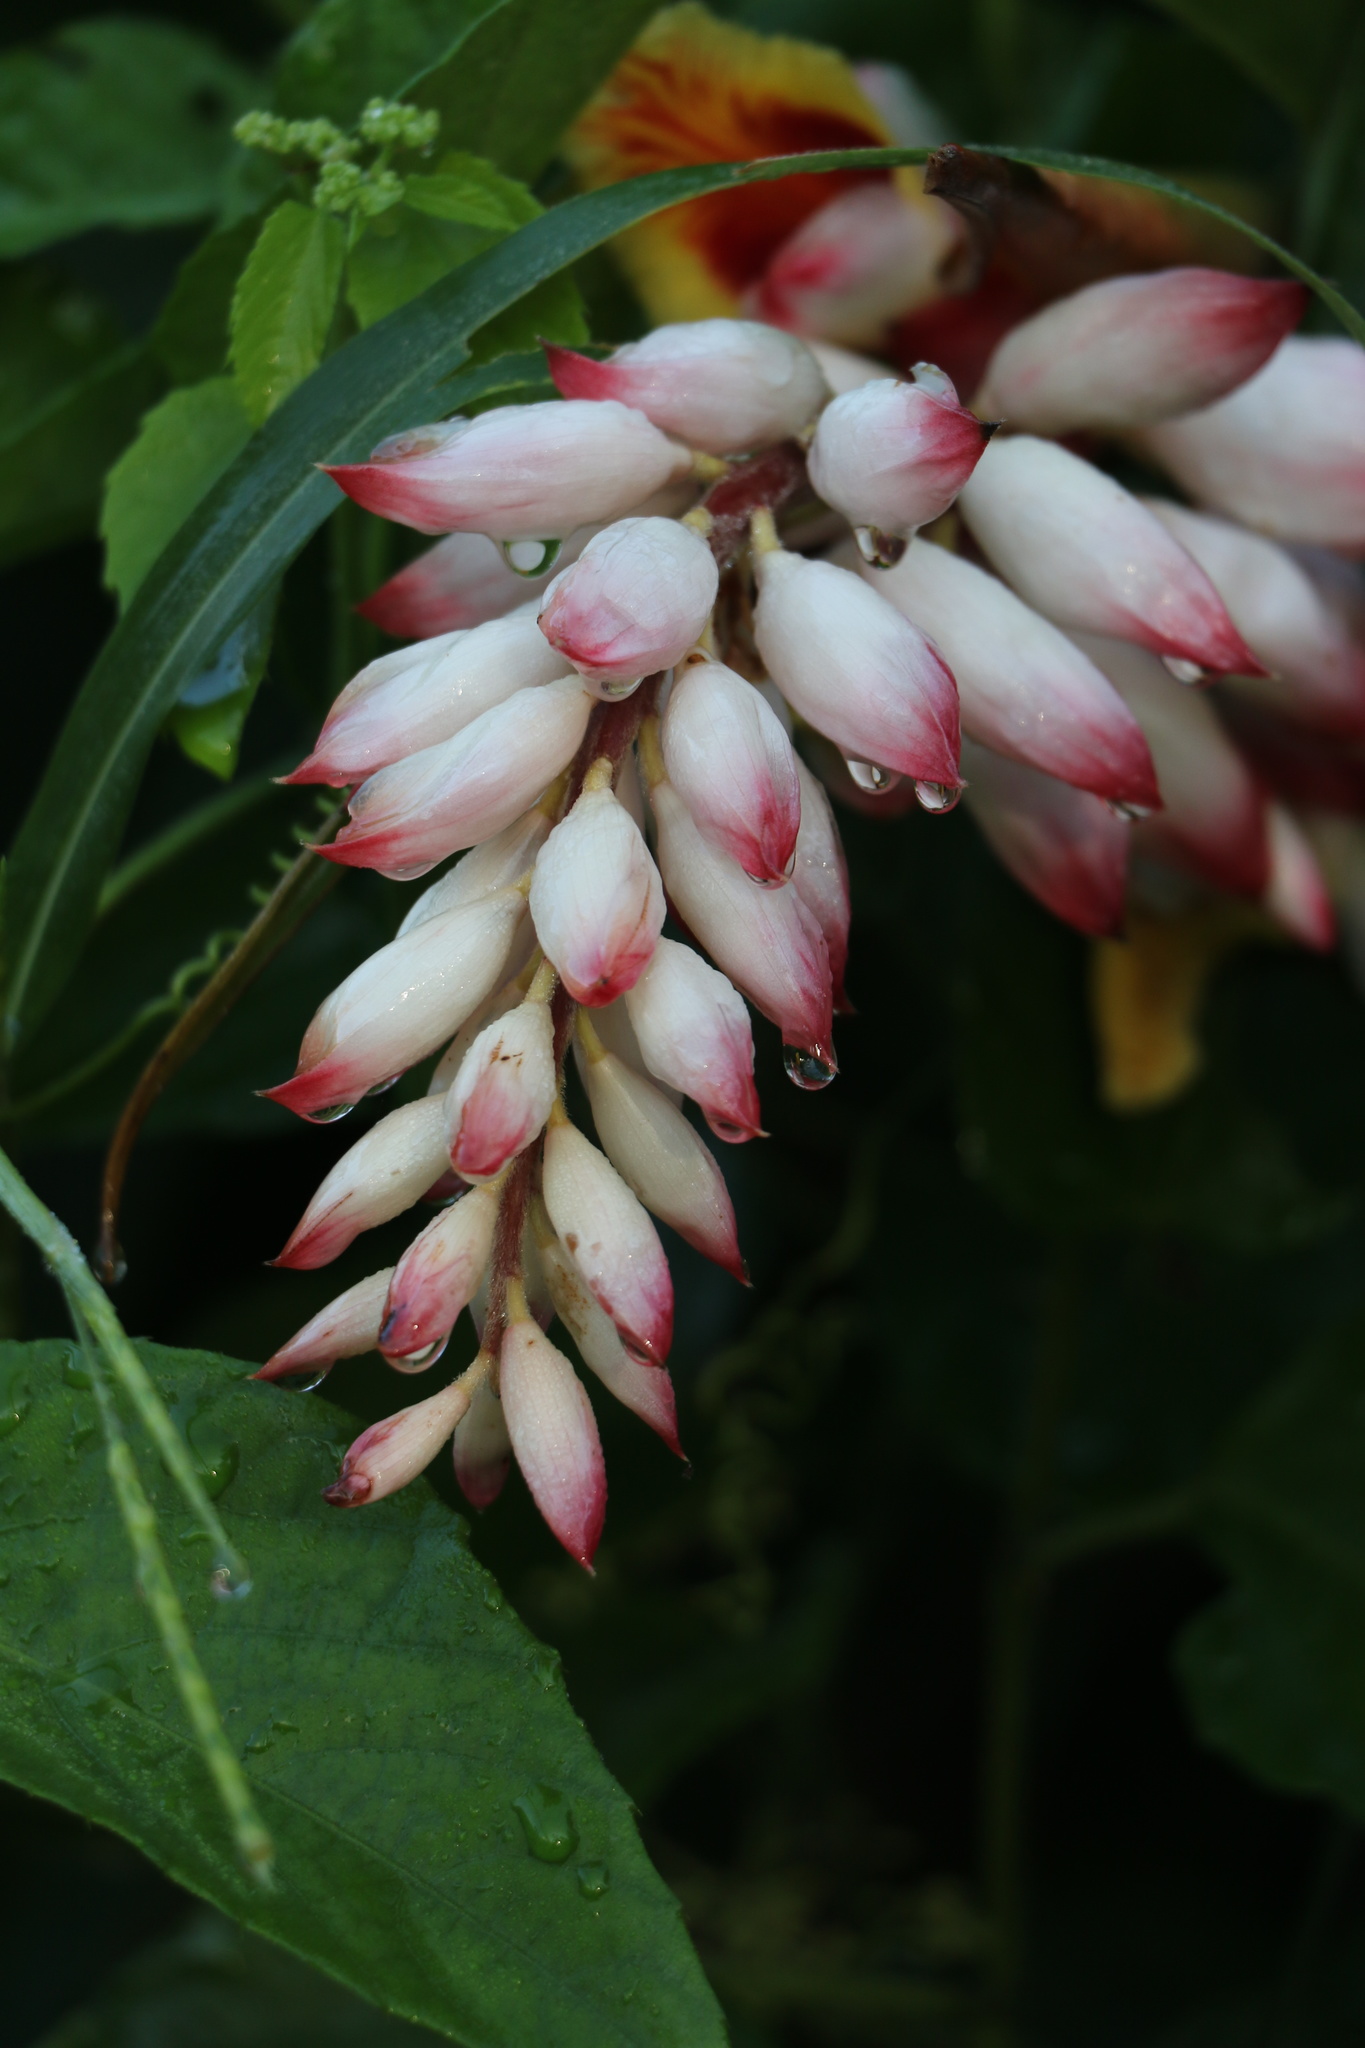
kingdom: Plantae
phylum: Tracheophyta
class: Liliopsida
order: Zingiberales
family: Zingiberaceae
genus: Alpinia
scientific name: Alpinia zerumbet
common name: Shellplant
